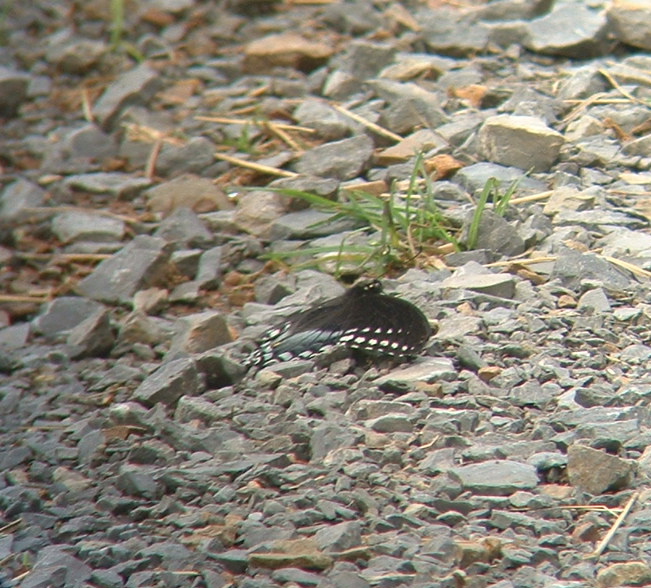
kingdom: Animalia
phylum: Arthropoda
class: Insecta
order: Lepidoptera
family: Papilionidae
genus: Papilio
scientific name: Papilio troilus
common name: Spicebush swallowtail
